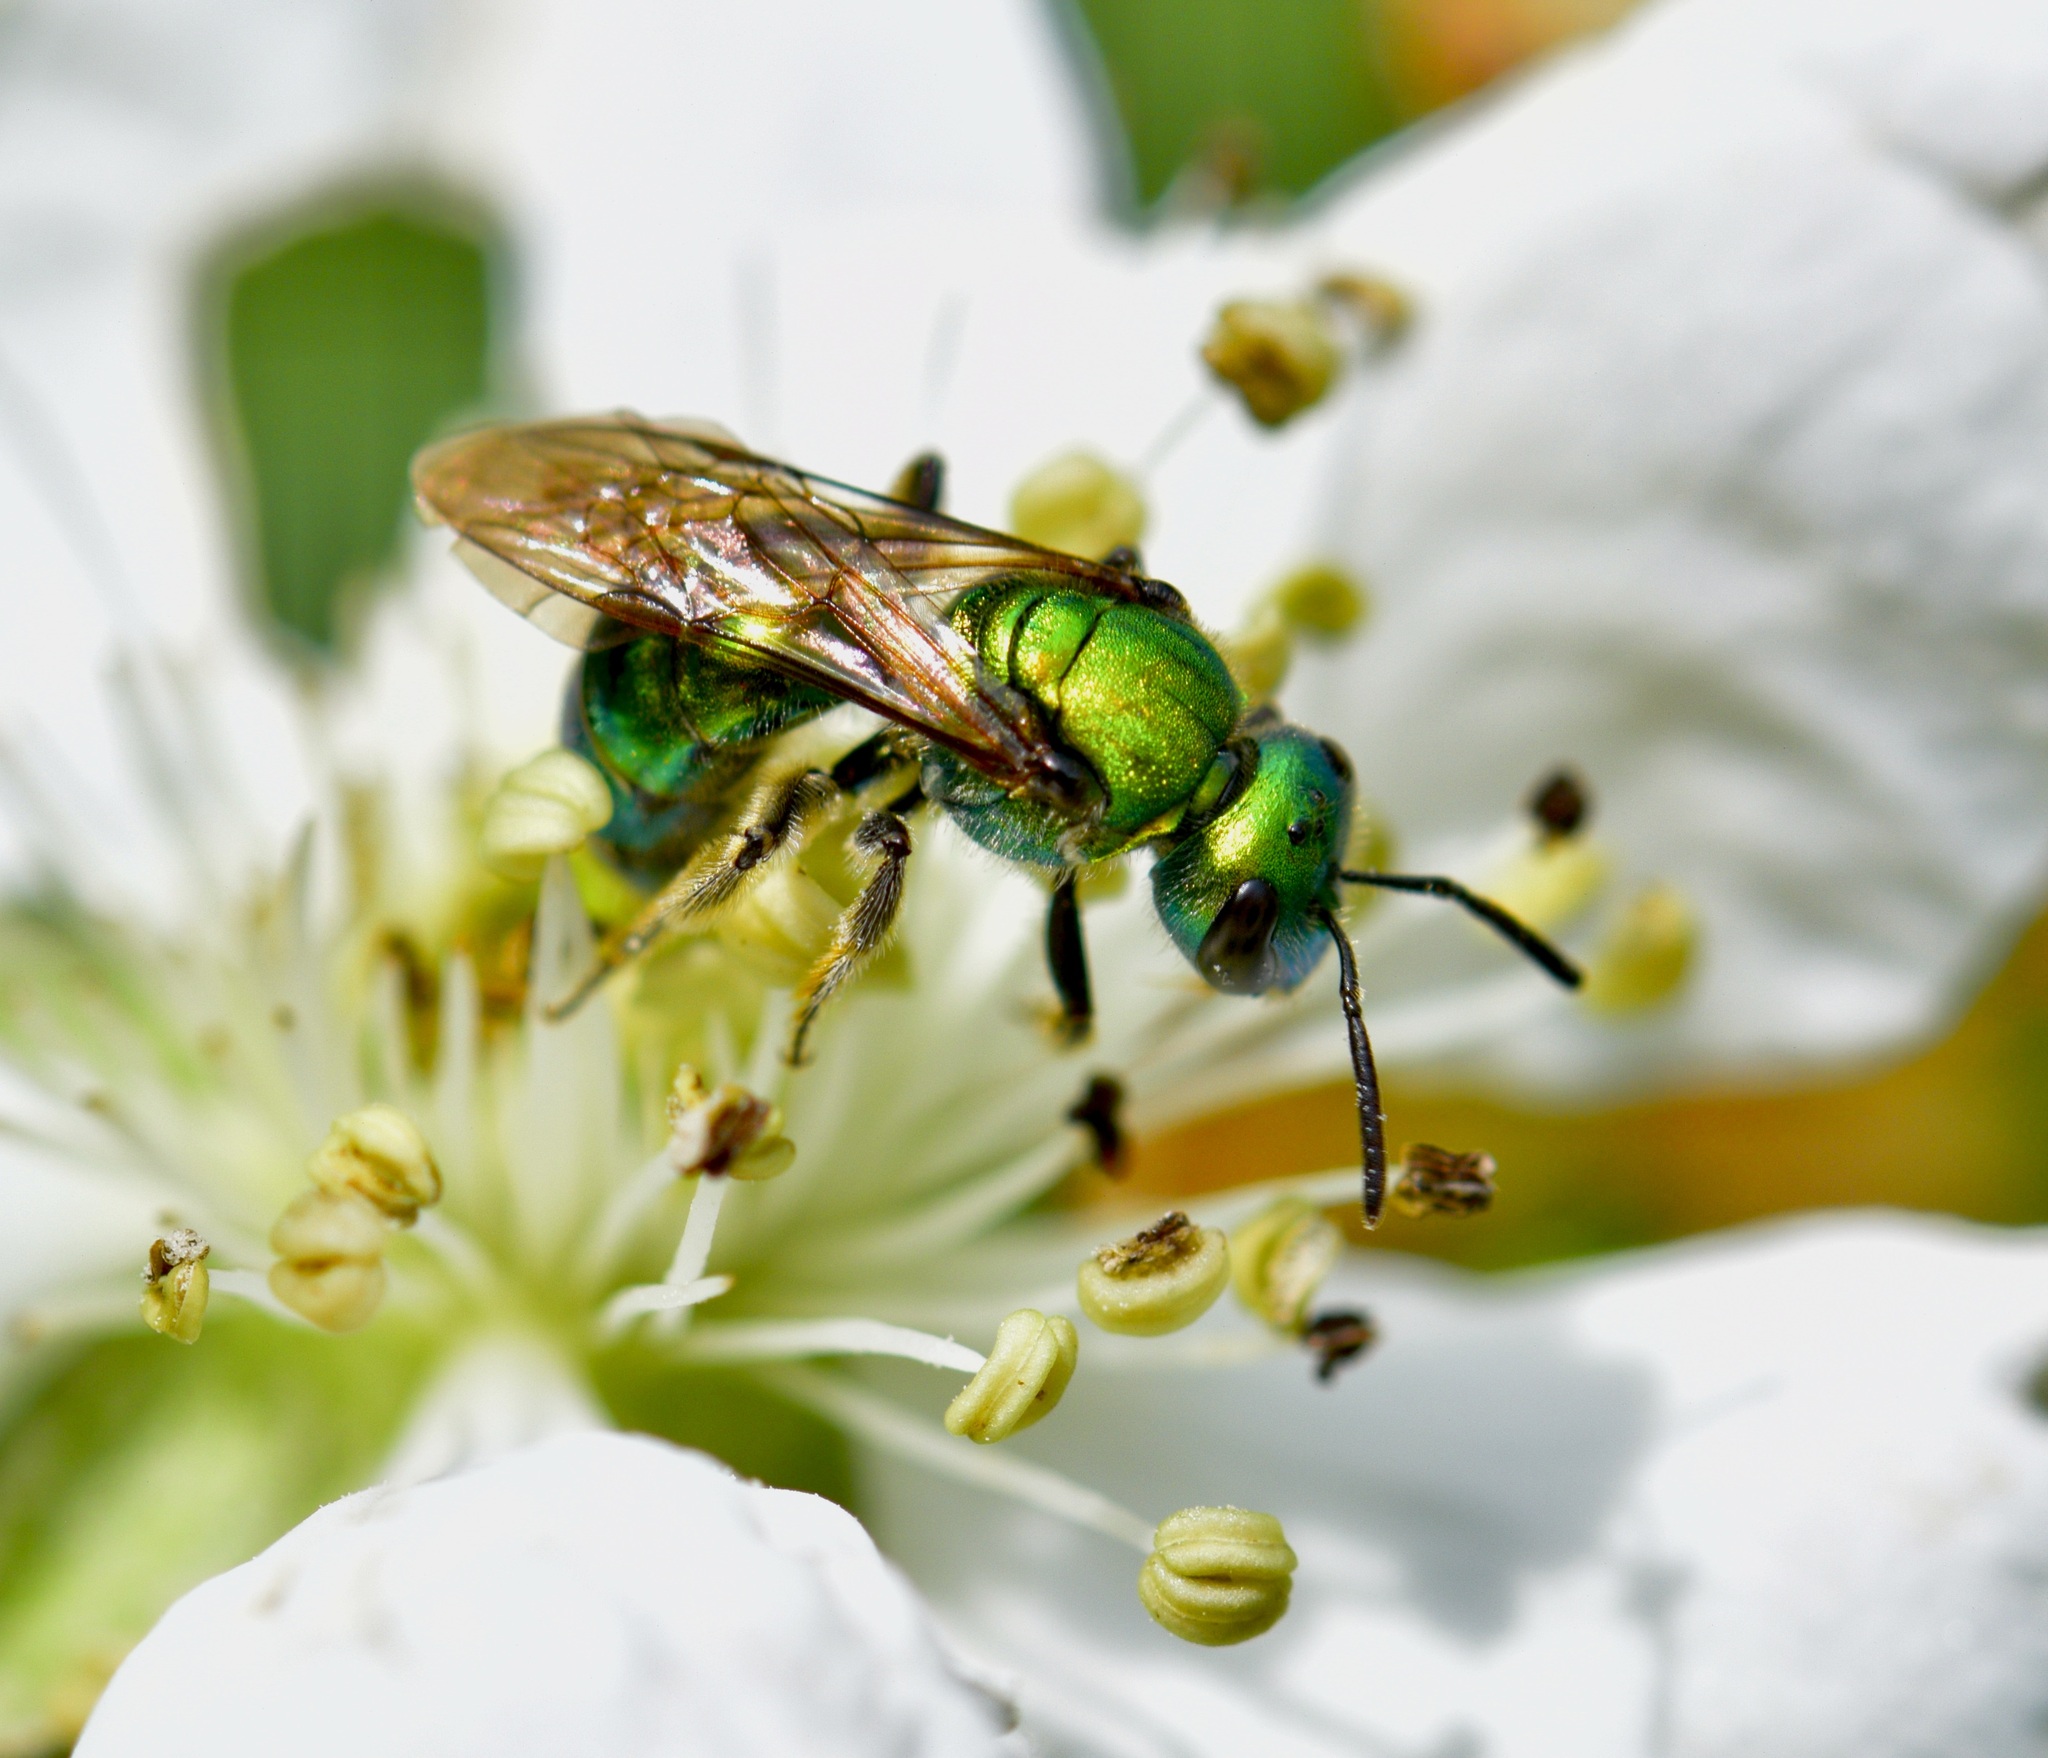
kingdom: Animalia
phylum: Arthropoda
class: Insecta
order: Hymenoptera
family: Halictidae
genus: Augochlora
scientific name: Augochlora pura
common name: Pure green sweat bee
